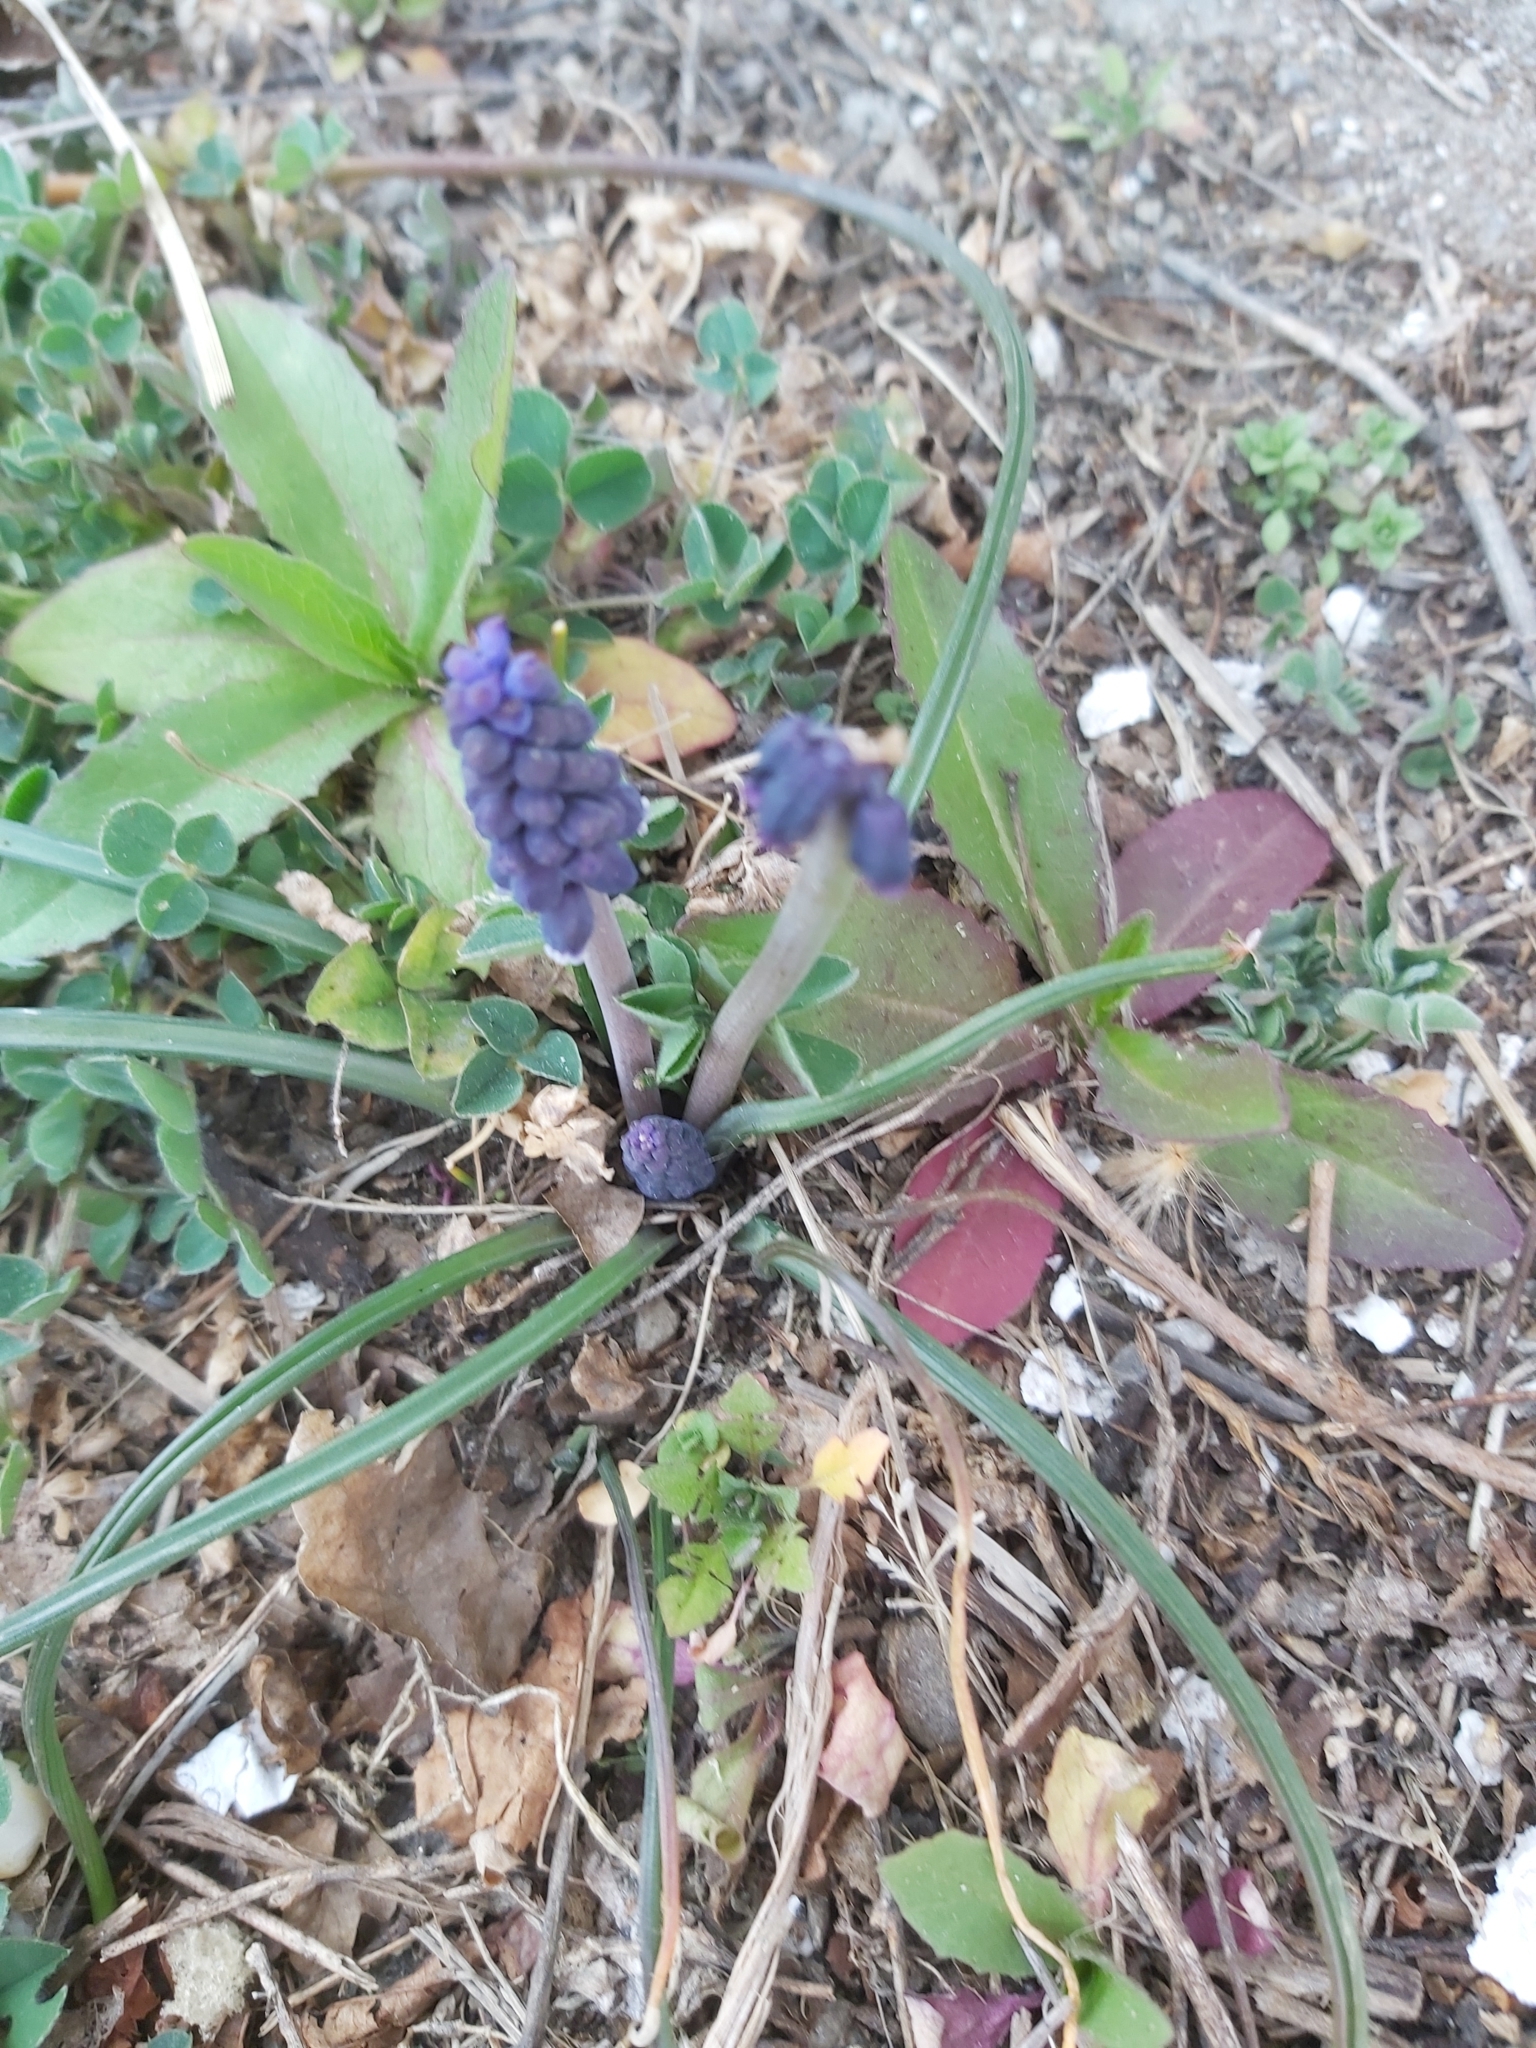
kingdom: Plantae
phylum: Tracheophyta
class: Liliopsida
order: Asparagales
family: Asparagaceae
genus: Muscari
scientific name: Muscari neglectum
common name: Grape-hyacinth
